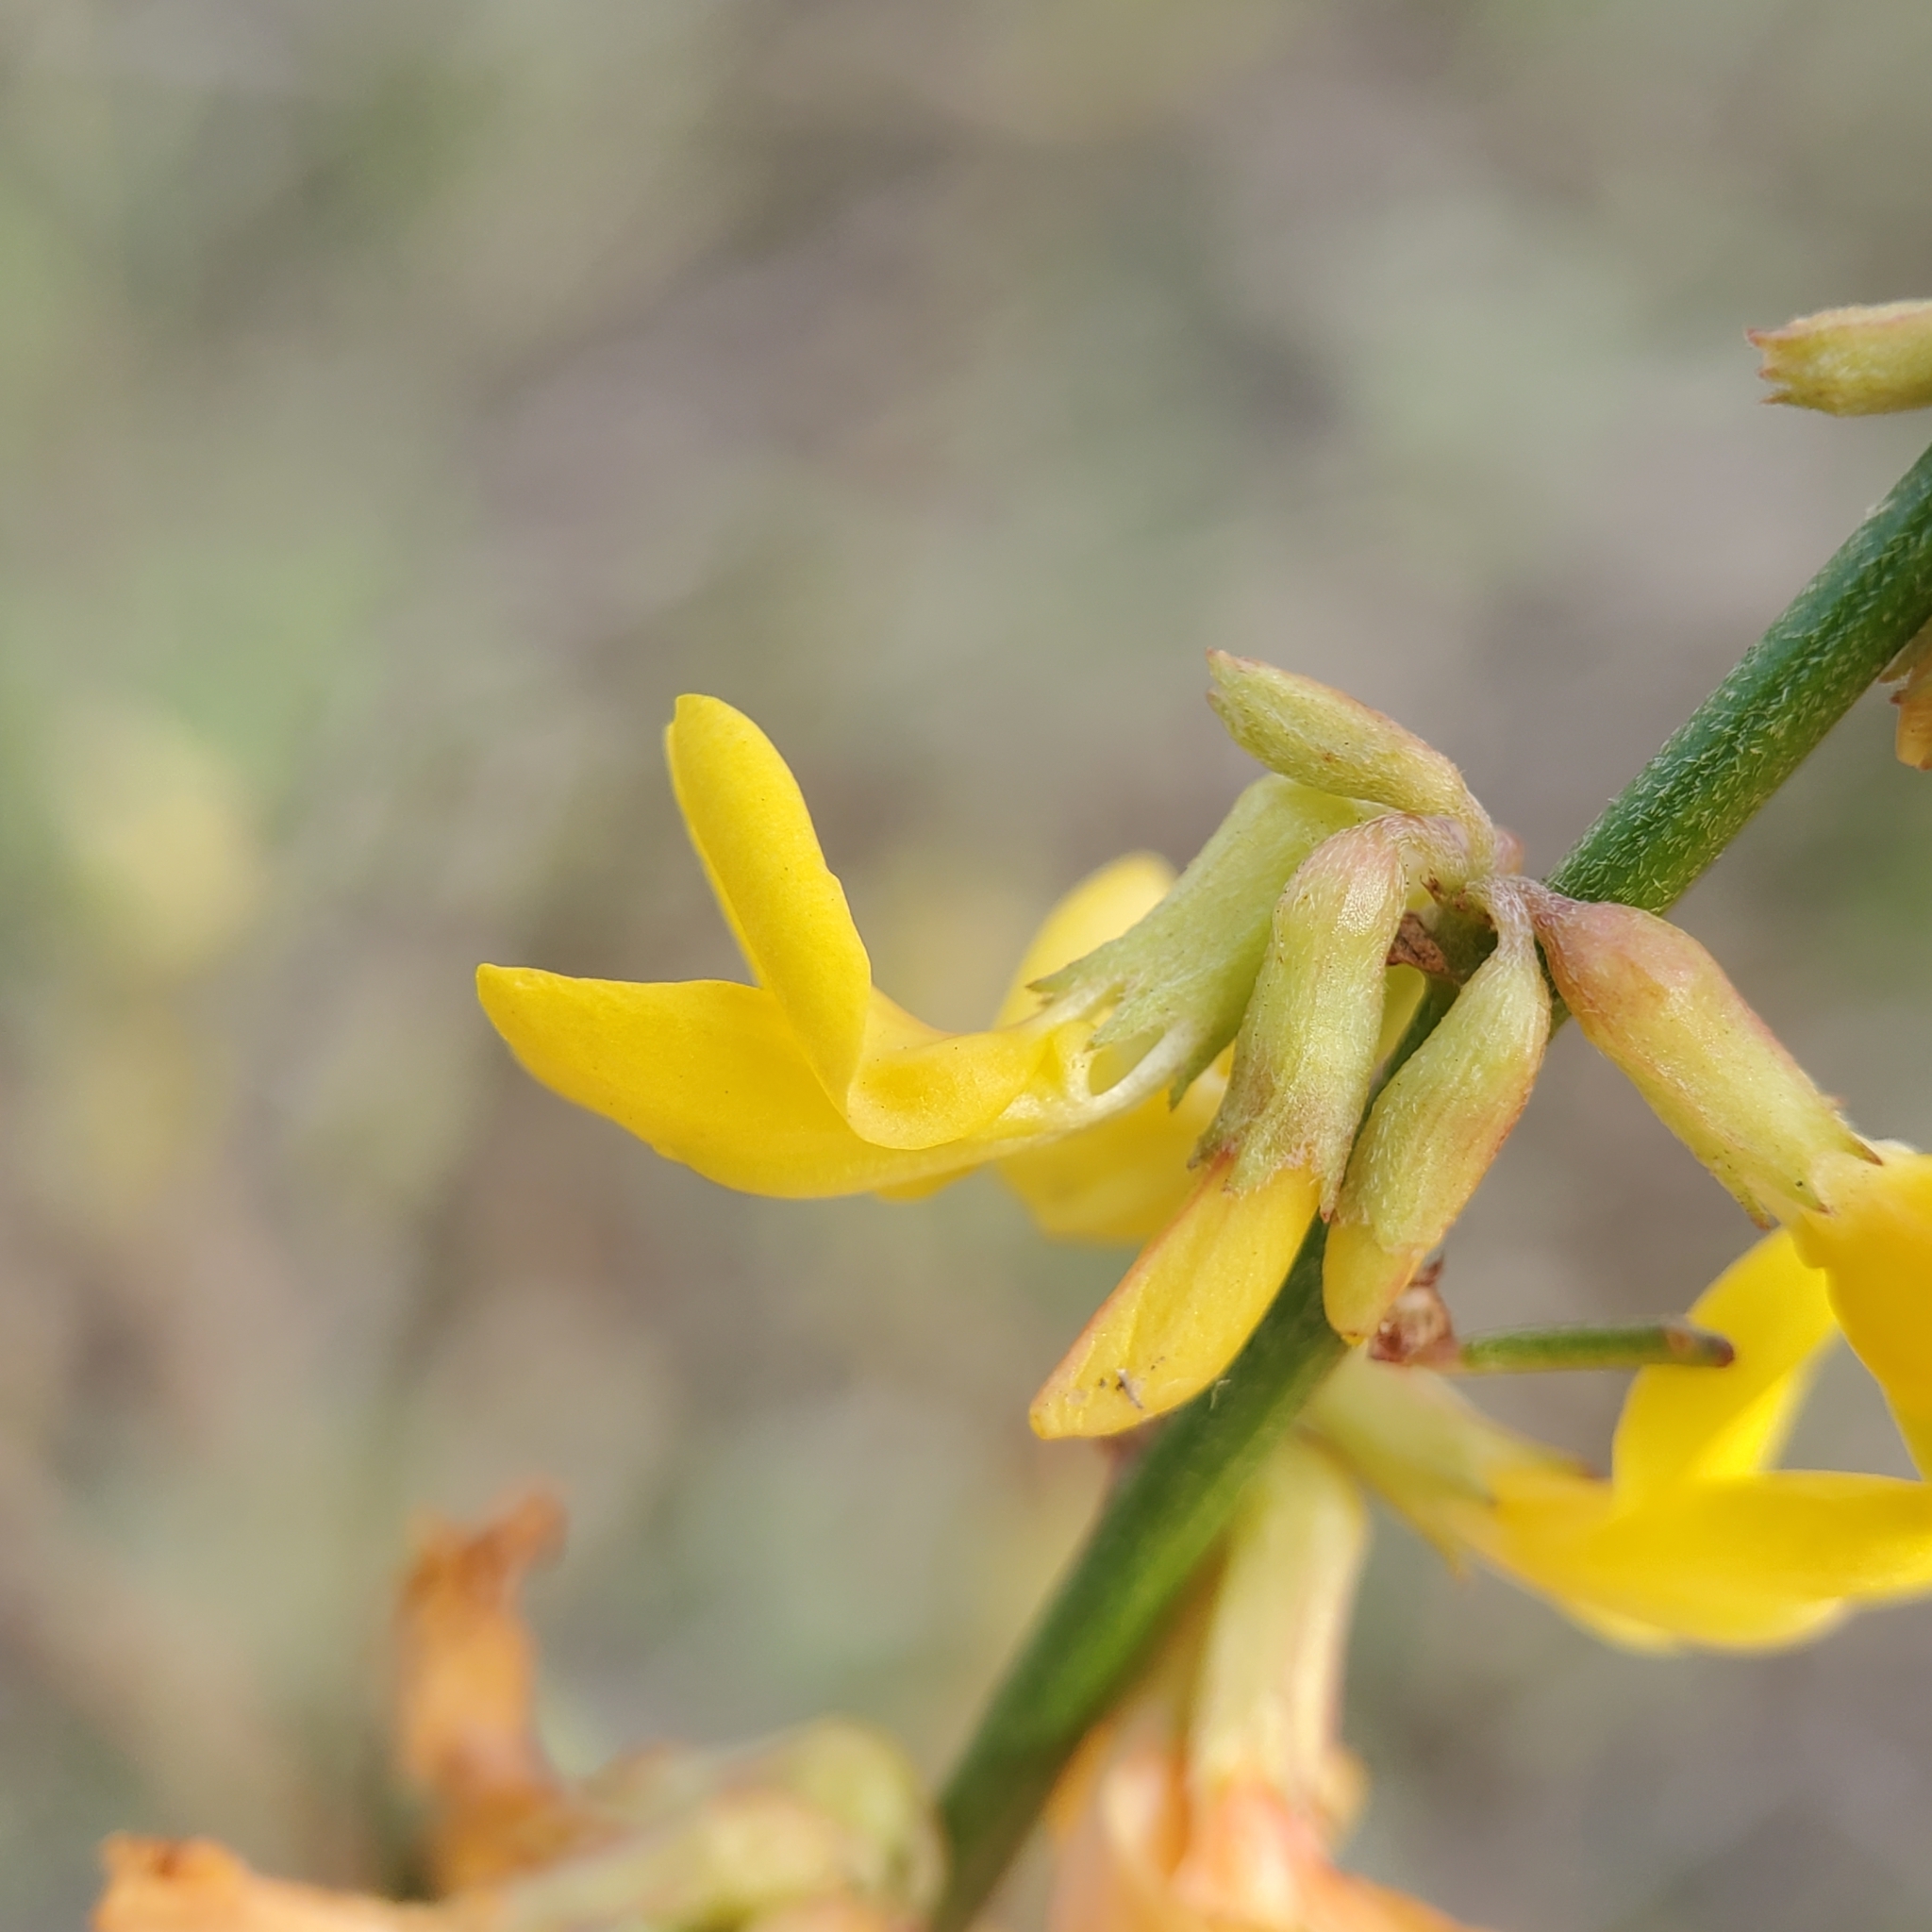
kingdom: Plantae
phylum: Tracheophyta
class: Magnoliopsida
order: Fabales
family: Fabaceae
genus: Acmispon
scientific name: Acmispon glaber
